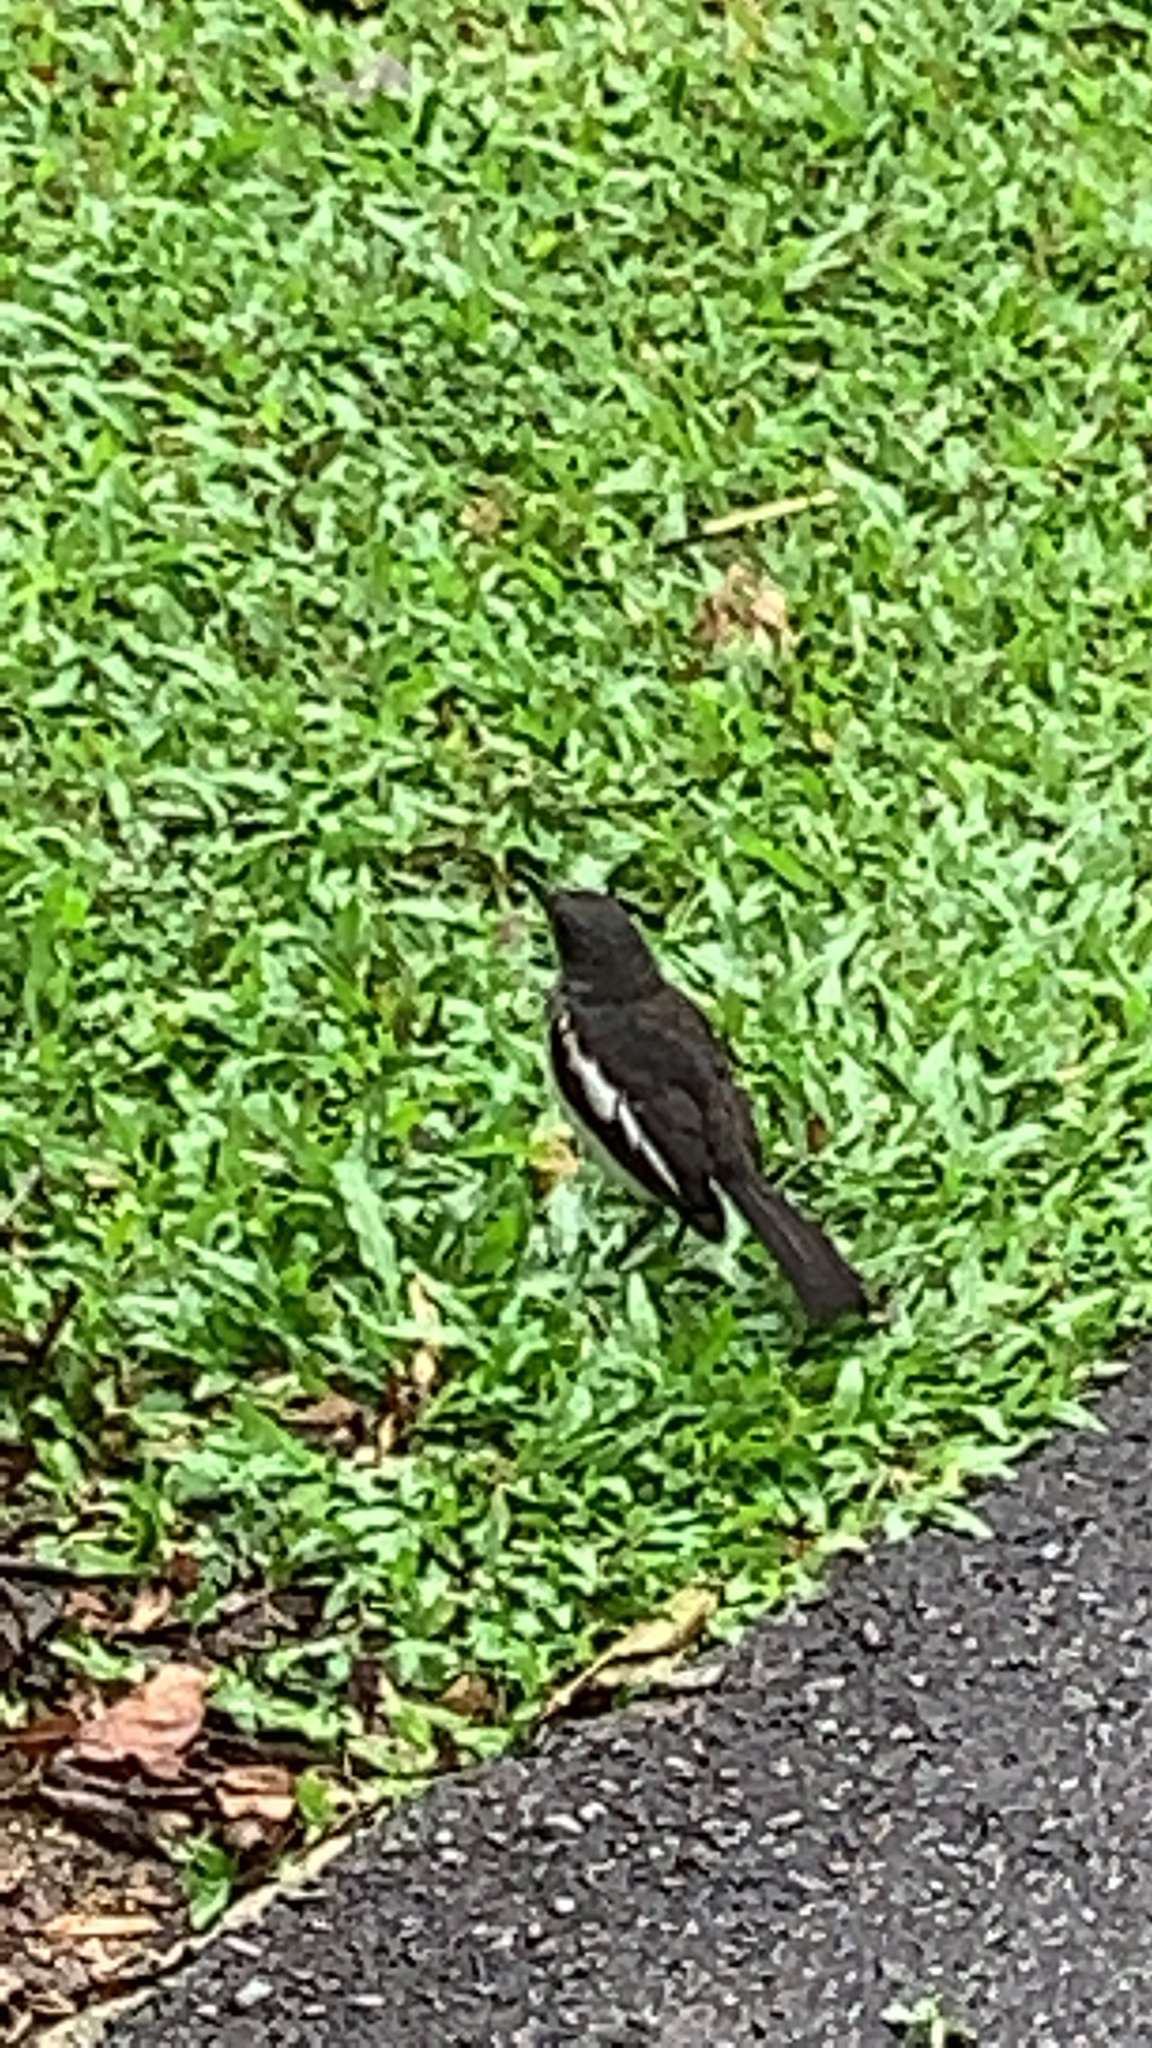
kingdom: Animalia
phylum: Chordata
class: Aves
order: Passeriformes
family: Muscicapidae
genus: Copsychus
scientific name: Copsychus saularis
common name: Oriental magpie-robin
